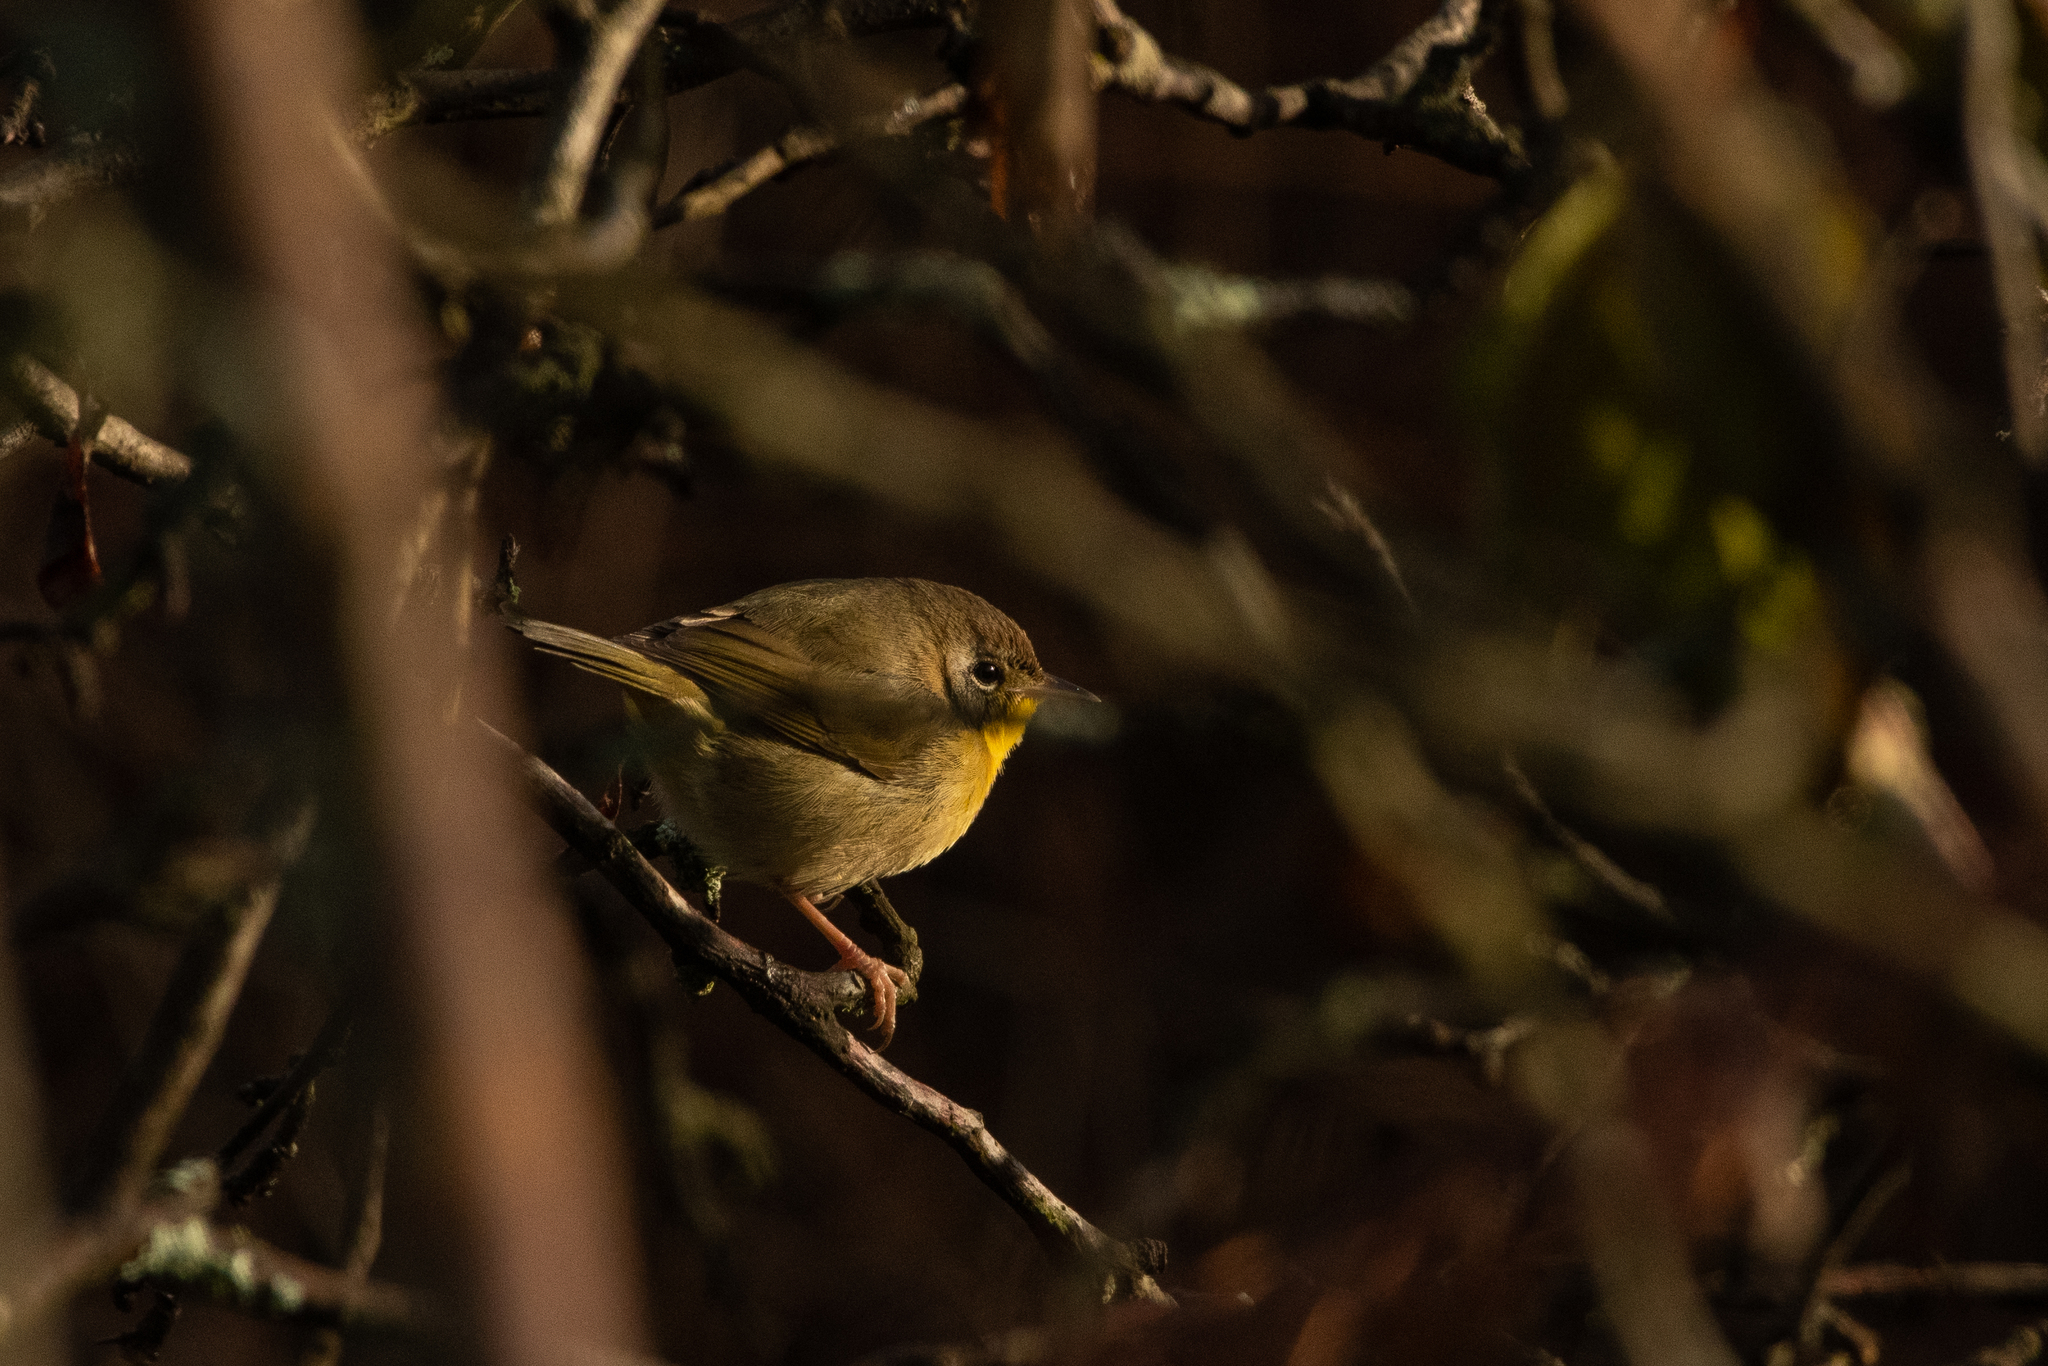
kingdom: Animalia
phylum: Chordata
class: Aves
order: Passeriformes
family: Parulidae
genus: Geothlypis
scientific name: Geothlypis trichas
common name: Common yellowthroat
